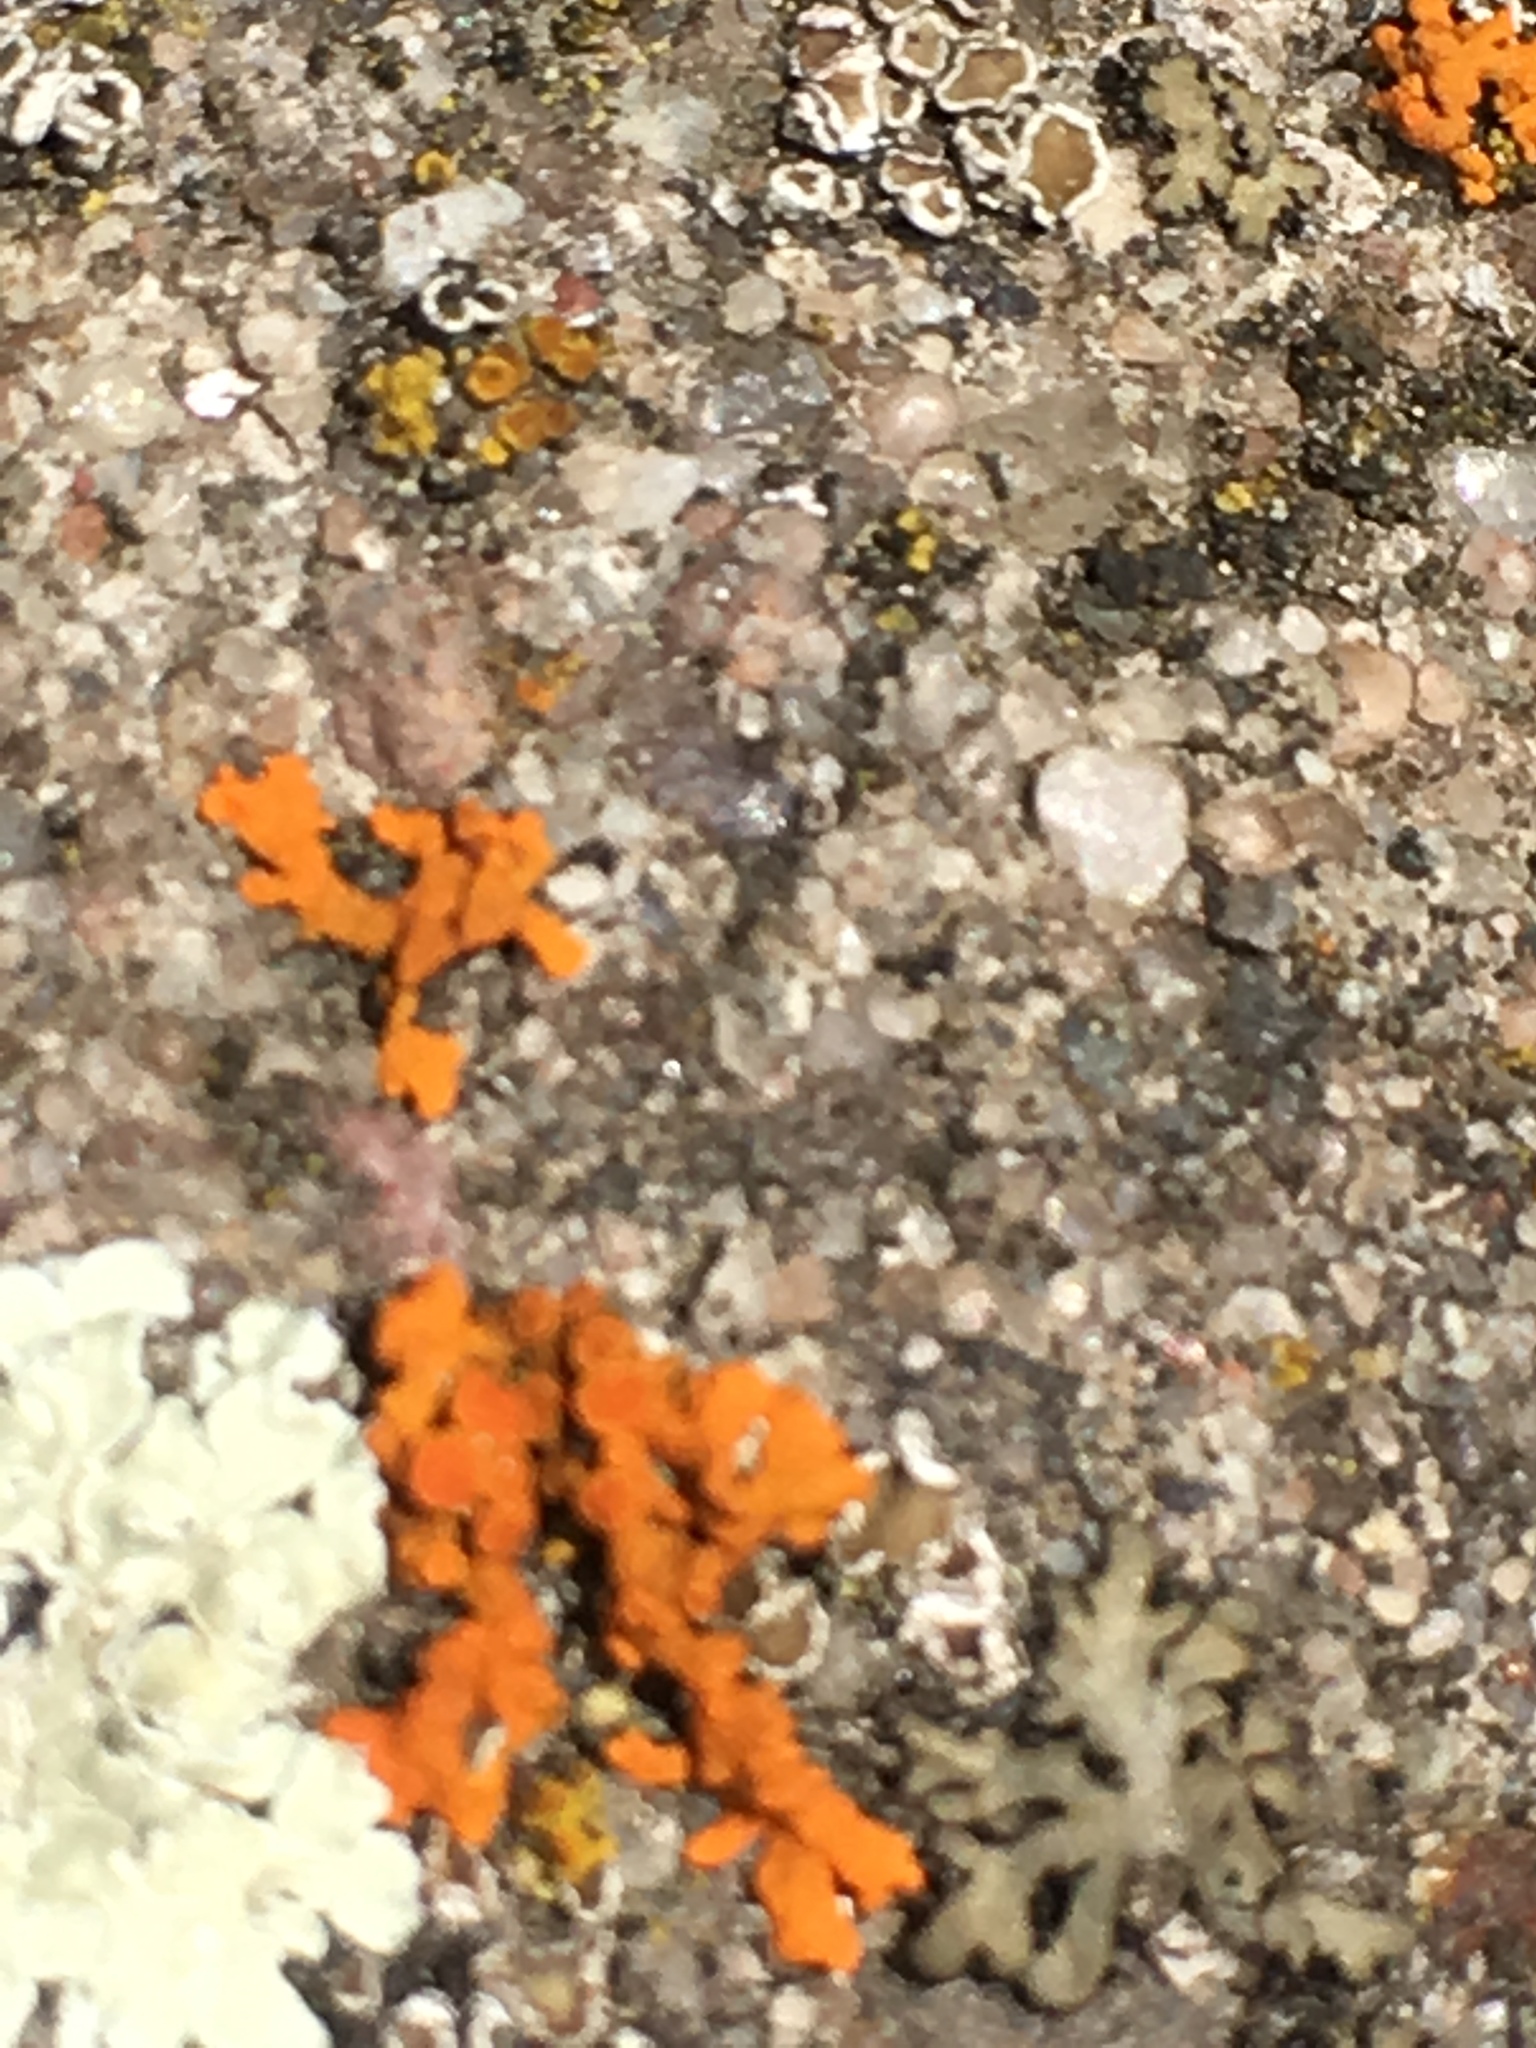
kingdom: Fungi
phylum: Ascomycota
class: Lecanoromycetes
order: Teloschistales
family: Teloschistaceae
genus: Xanthoria
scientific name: Xanthoria elegans
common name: Elegant sunburst lichen
